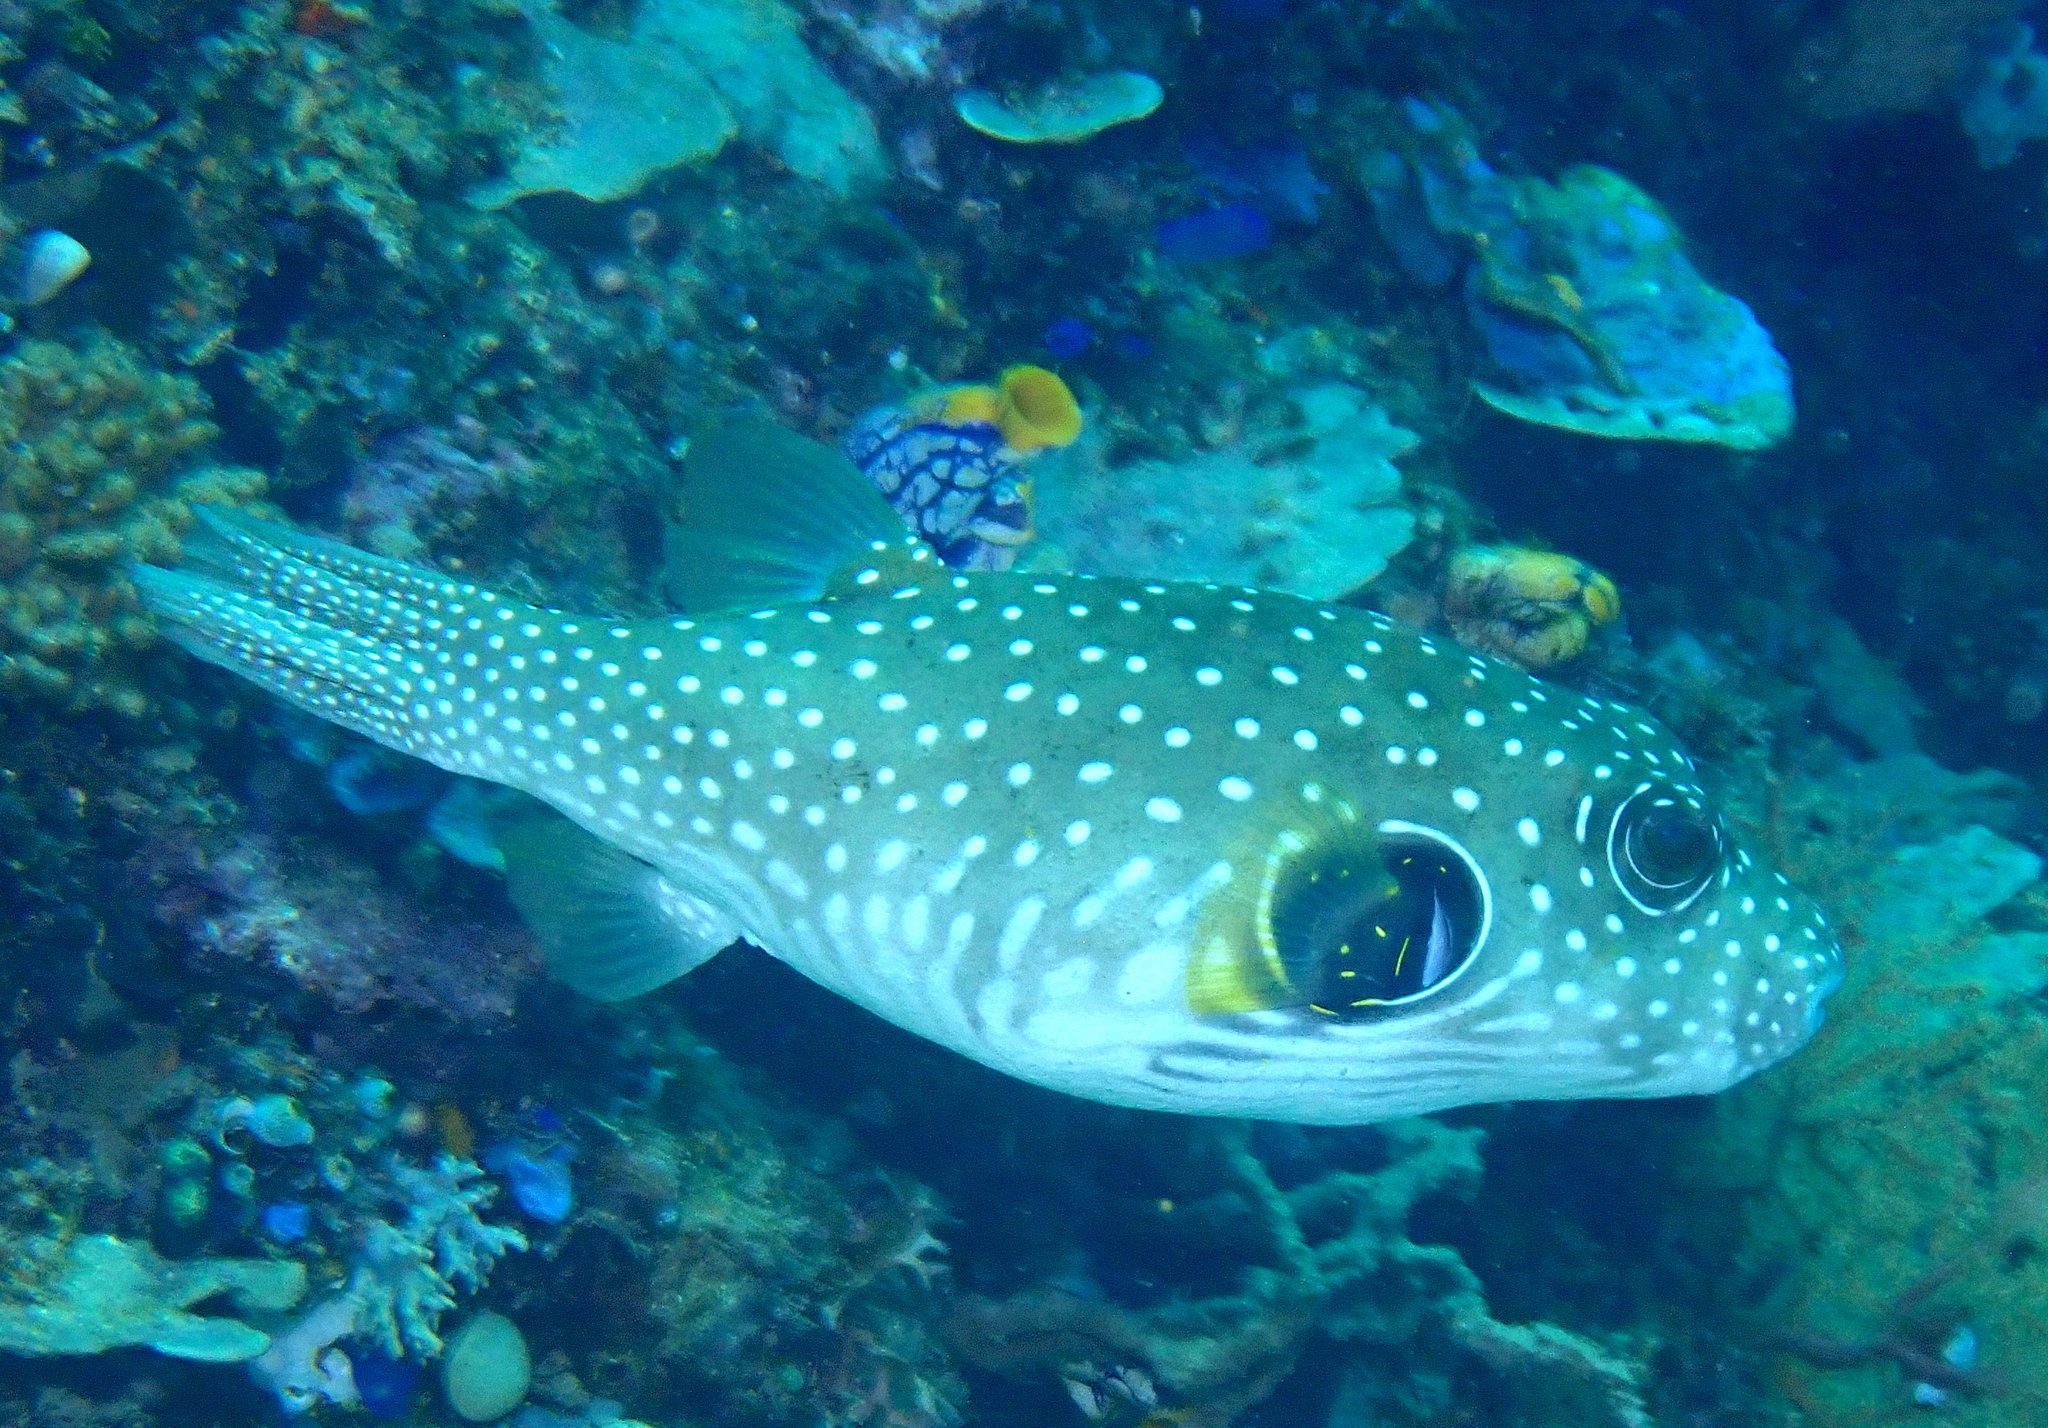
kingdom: Animalia
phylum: Chordata
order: Tetraodontiformes
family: Tetraodontidae
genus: Arothron
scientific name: Arothron hispidus
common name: Stripebelly puffer
